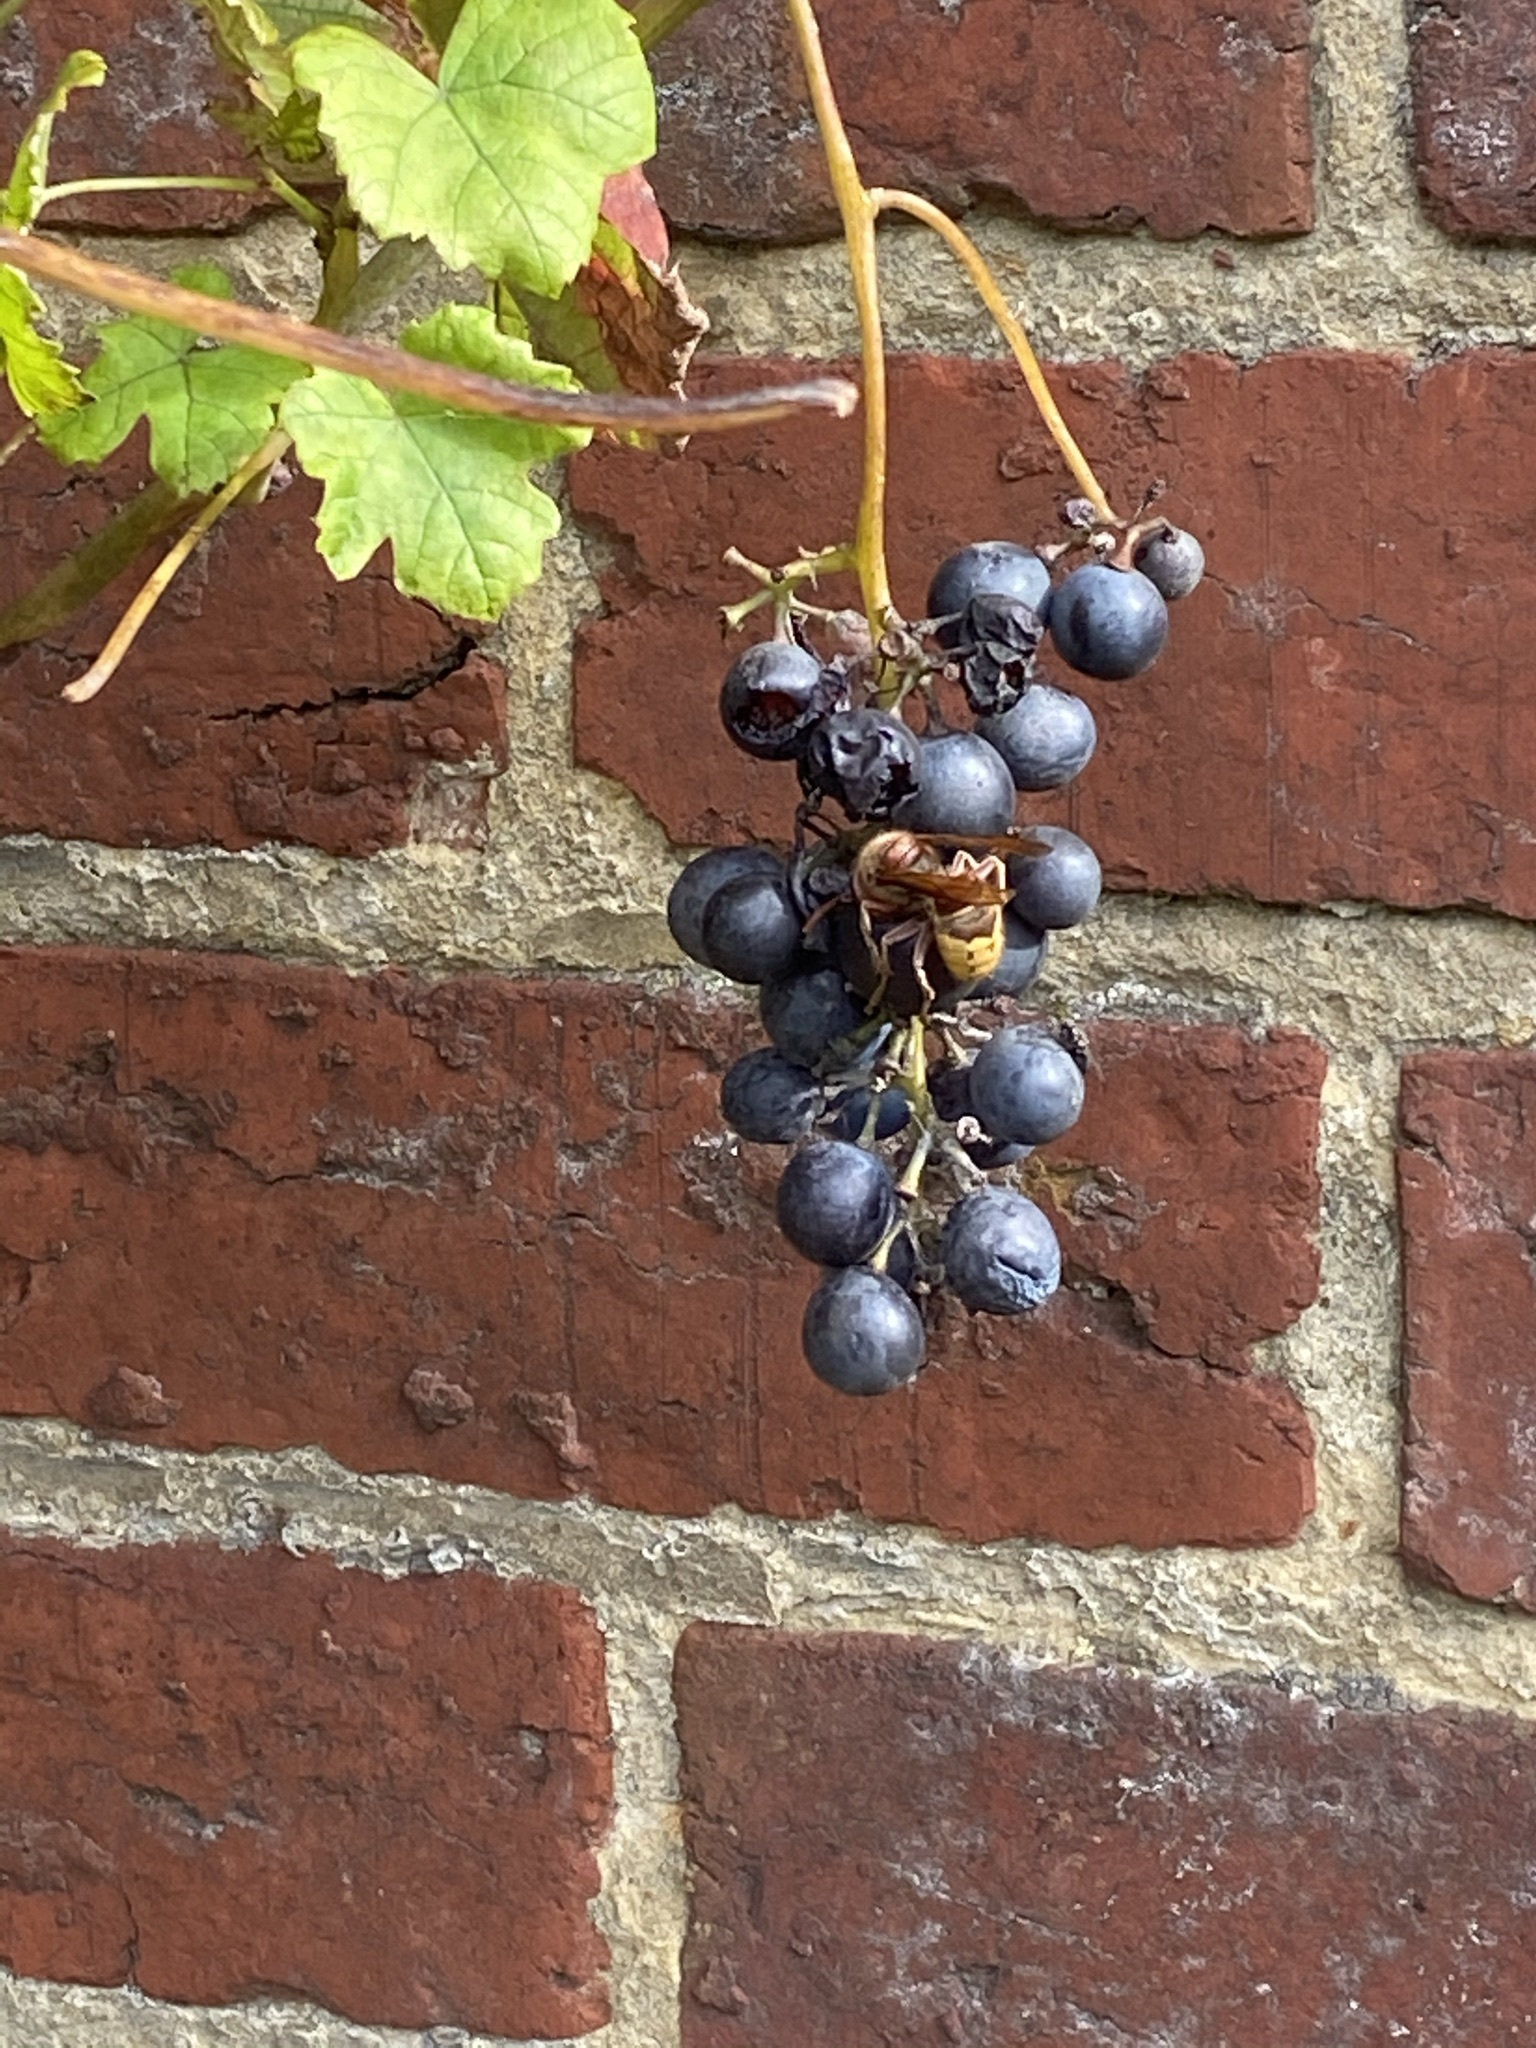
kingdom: Animalia
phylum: Arthropoda
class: Insecta
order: Hymenoptera
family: Vespidae
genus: Vespa
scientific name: Vespa crabro
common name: Hornet
